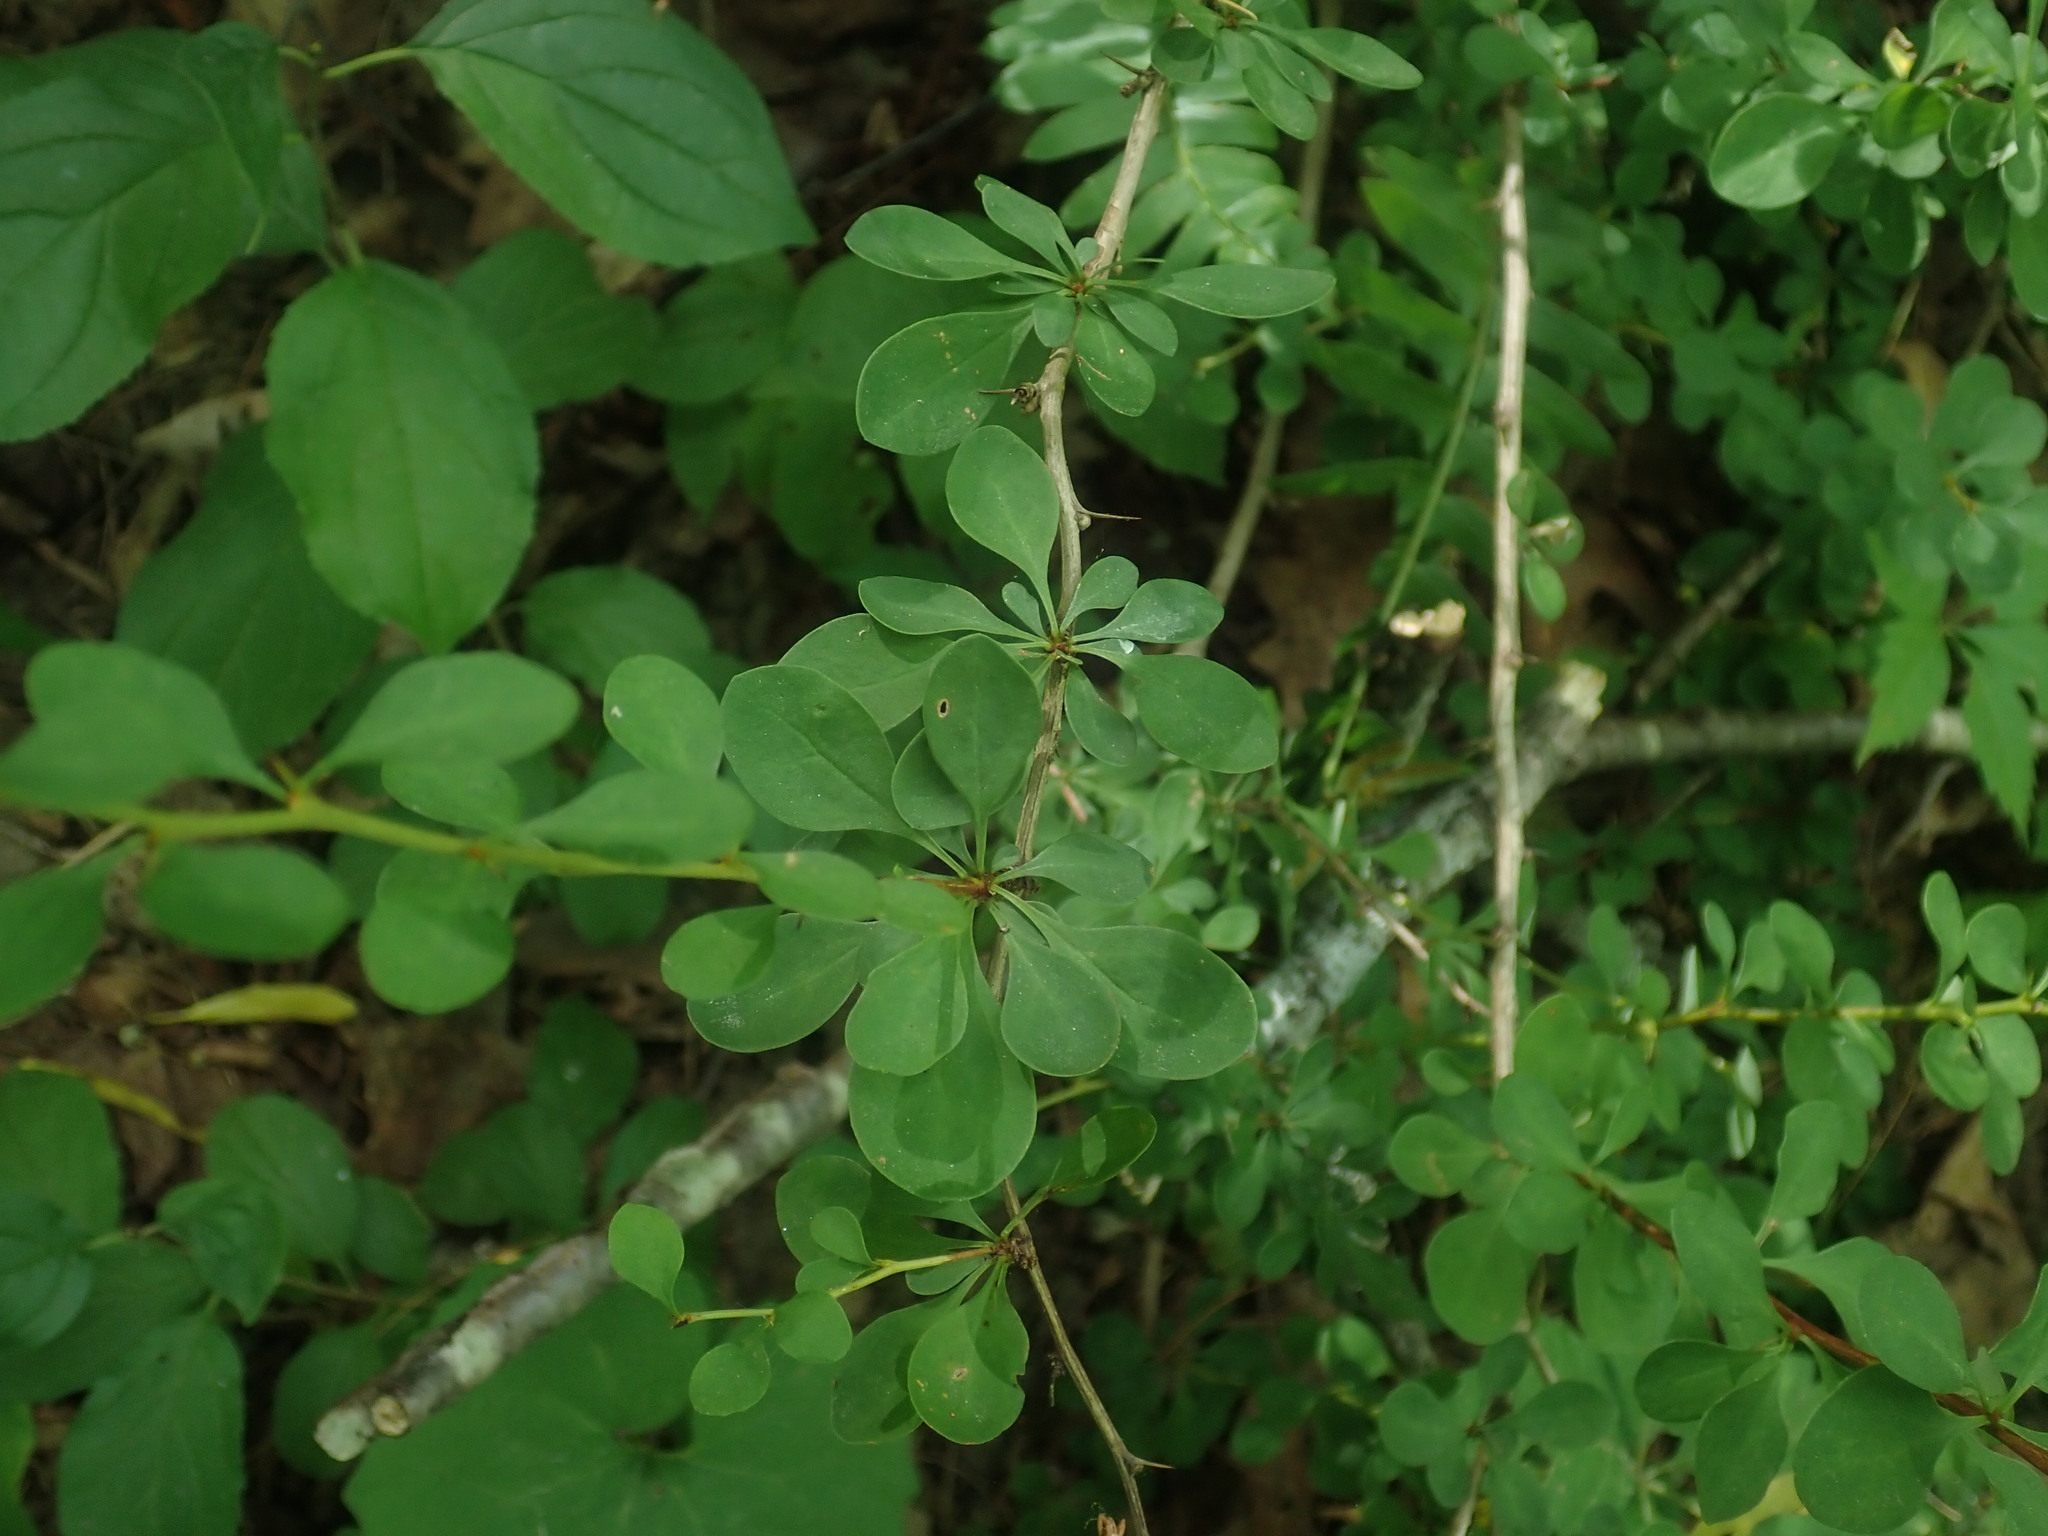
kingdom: Plantae
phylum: Tracheophyta
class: Magnoliopsida
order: Ranunculales
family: Berberidaceae
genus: Berberis
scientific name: Berberis thunbergii
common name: Japanese barberry
